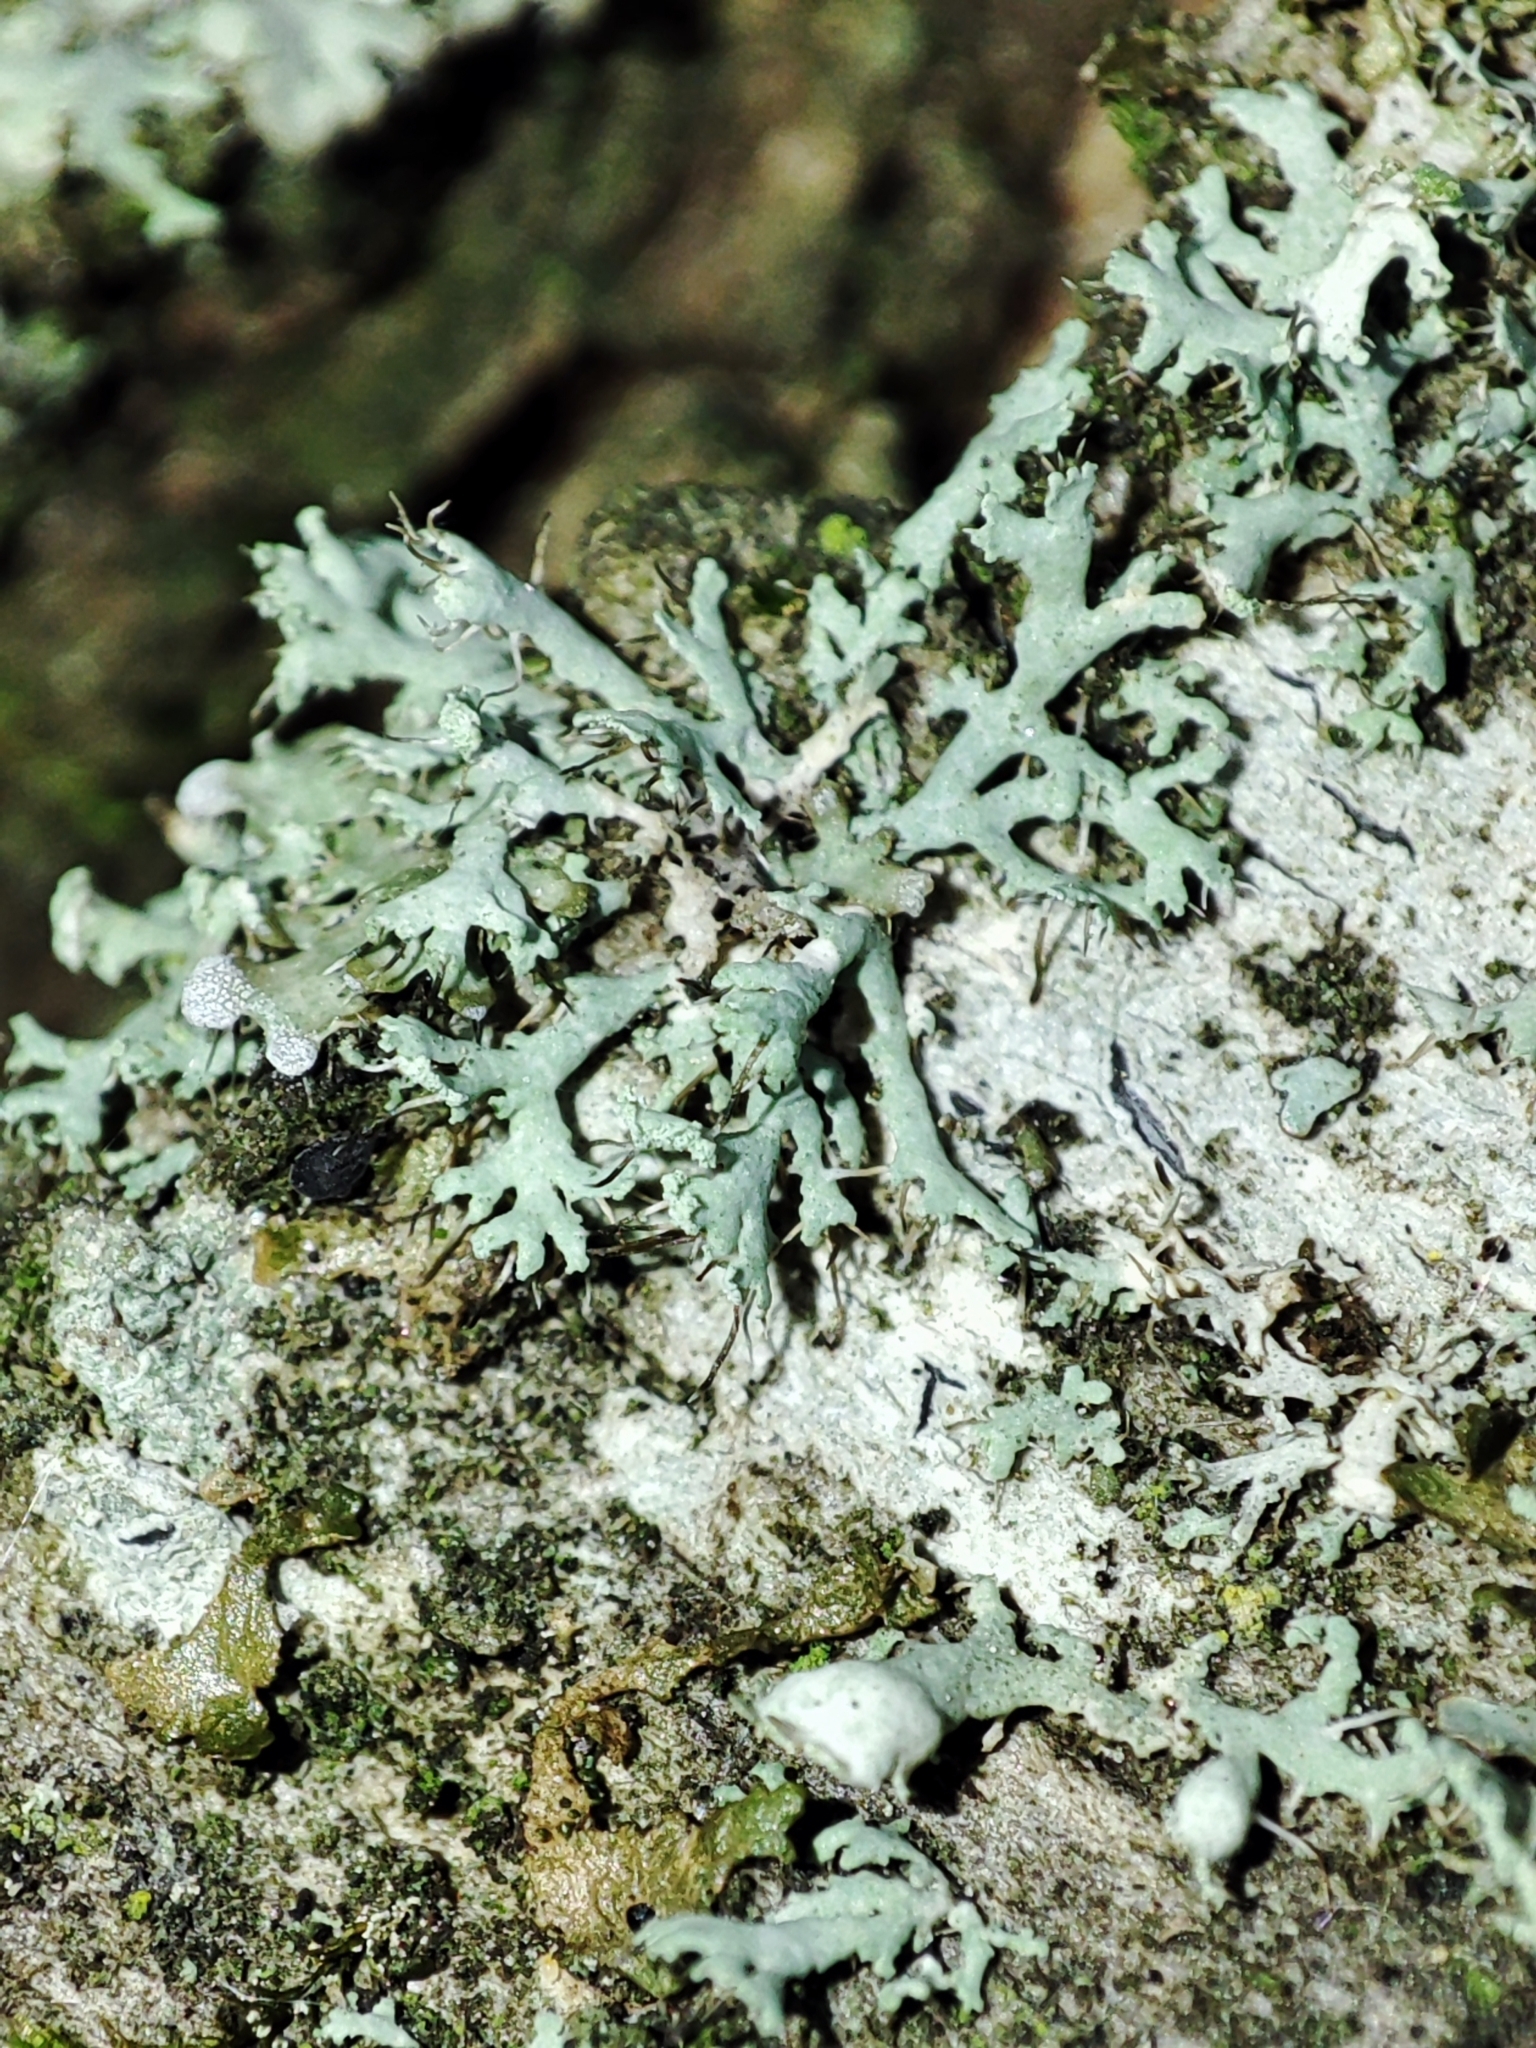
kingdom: Fungi
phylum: Ascomycota
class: Lecanoromycetes
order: Caliciales
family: Physciaceae
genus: Physcia
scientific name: Physcia tenella
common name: Fringed rosette lichen
